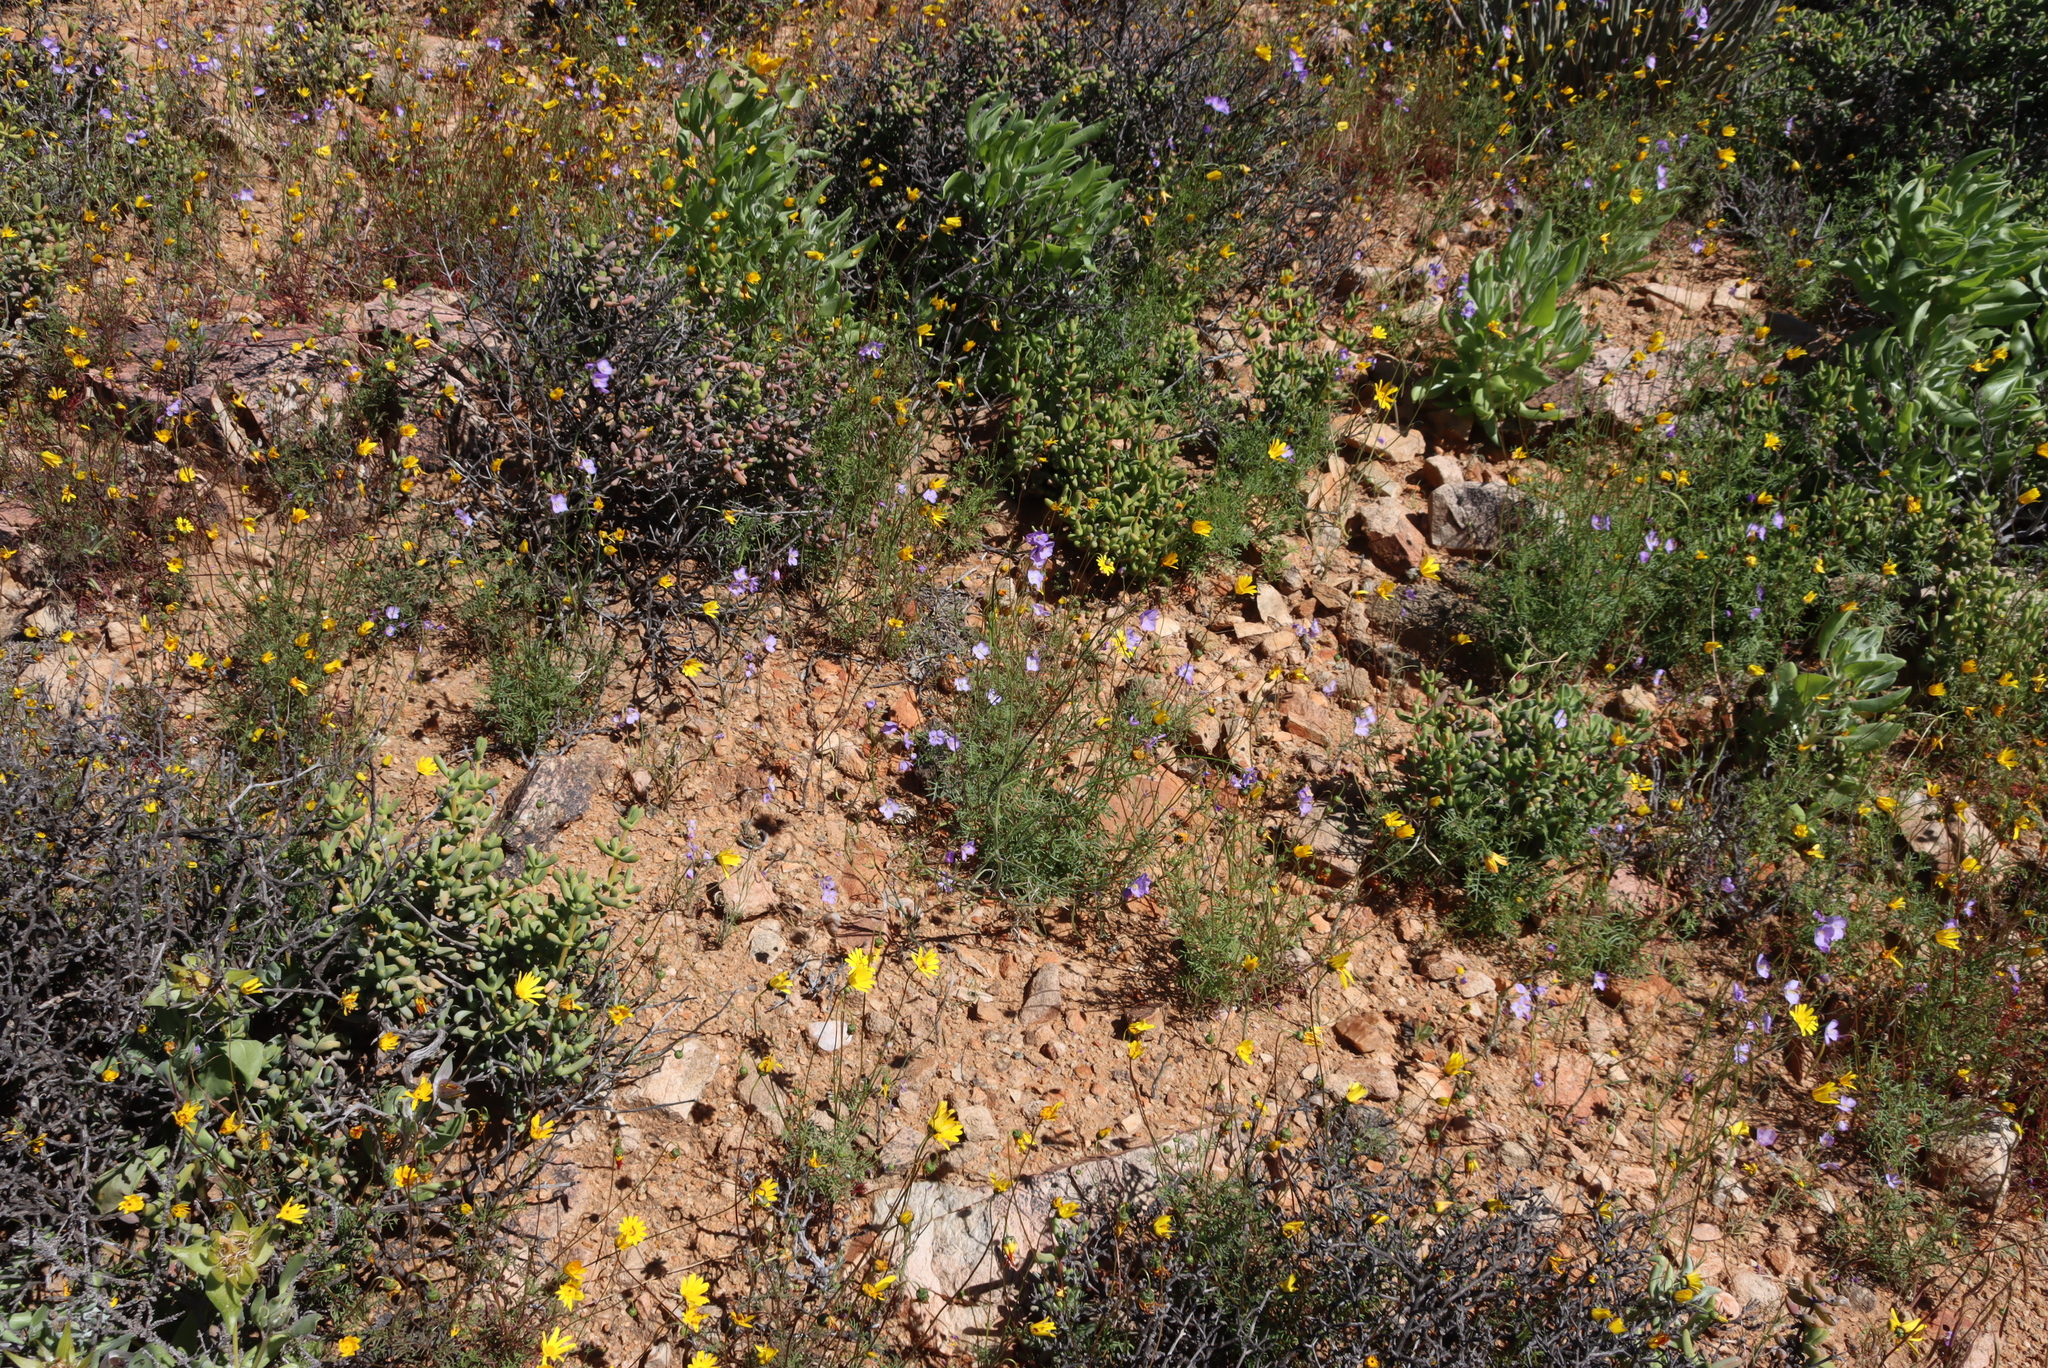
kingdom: Plantae
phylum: Tracheophyta
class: Magnoliopsida
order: Brassicales
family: Brassicaceae
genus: Heliophila
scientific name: Heliophila trifurca
